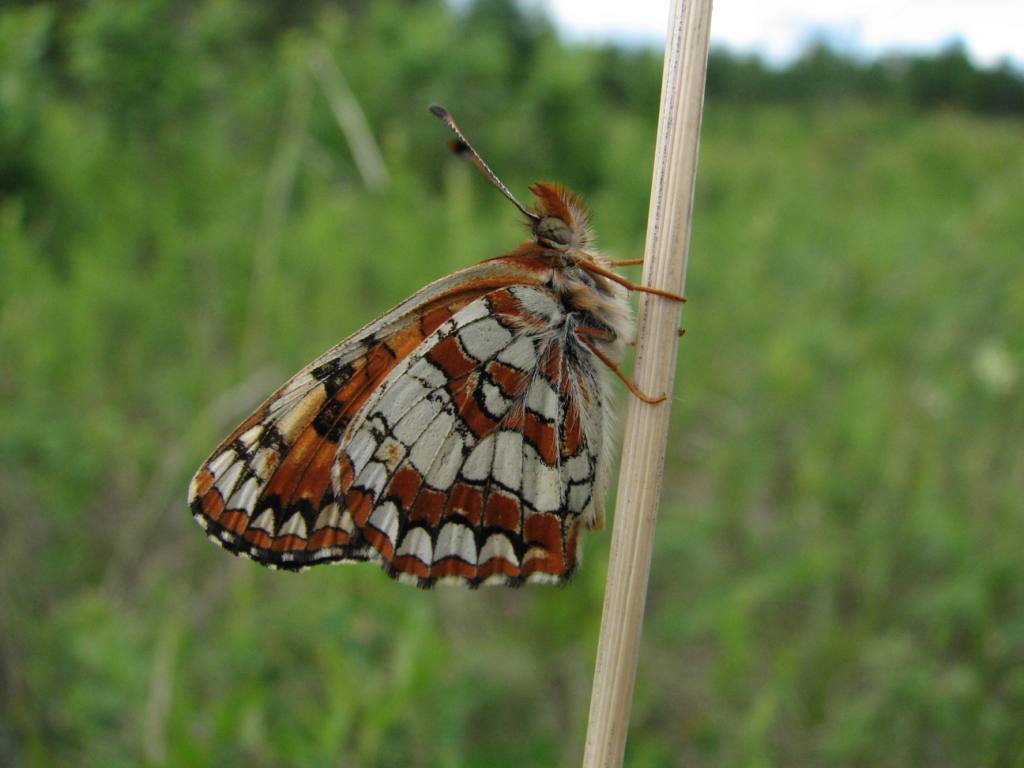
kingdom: Animalia
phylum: Arthropoda
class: Insecta
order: Lepidoptera
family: Nymphalidae
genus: Chlosyne
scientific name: Chlosyne palla
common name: Northern checkerspot
